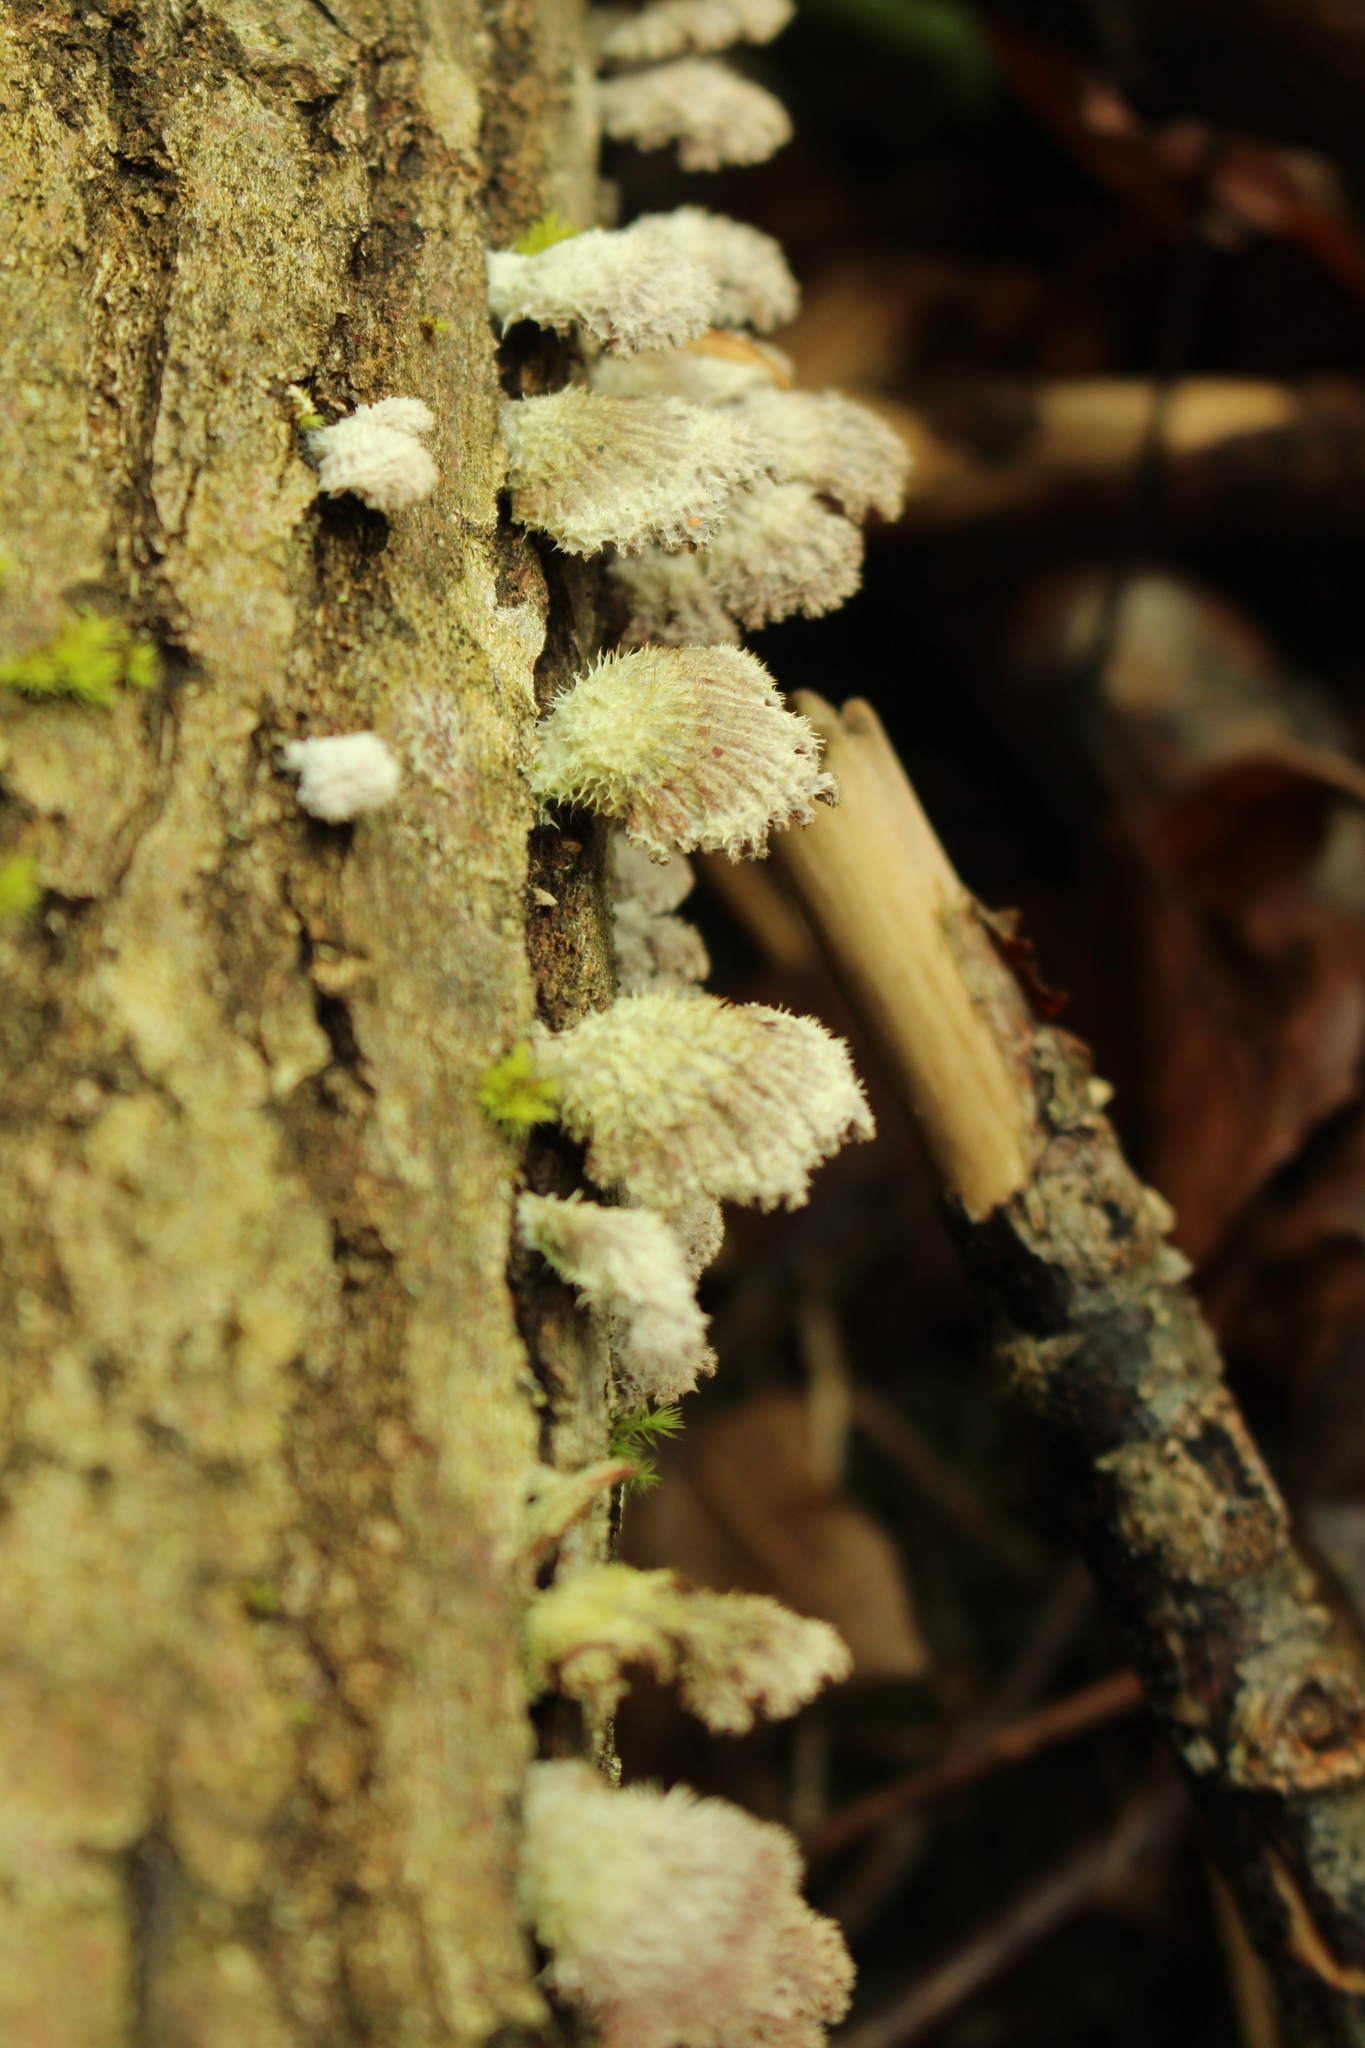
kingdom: Fungi
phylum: Basidiomycota
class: Agaricomycetes
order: Agaricales
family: Schizophyllaceae
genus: Schizophyllum
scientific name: Schizophyllum commune
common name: Common porecrust
